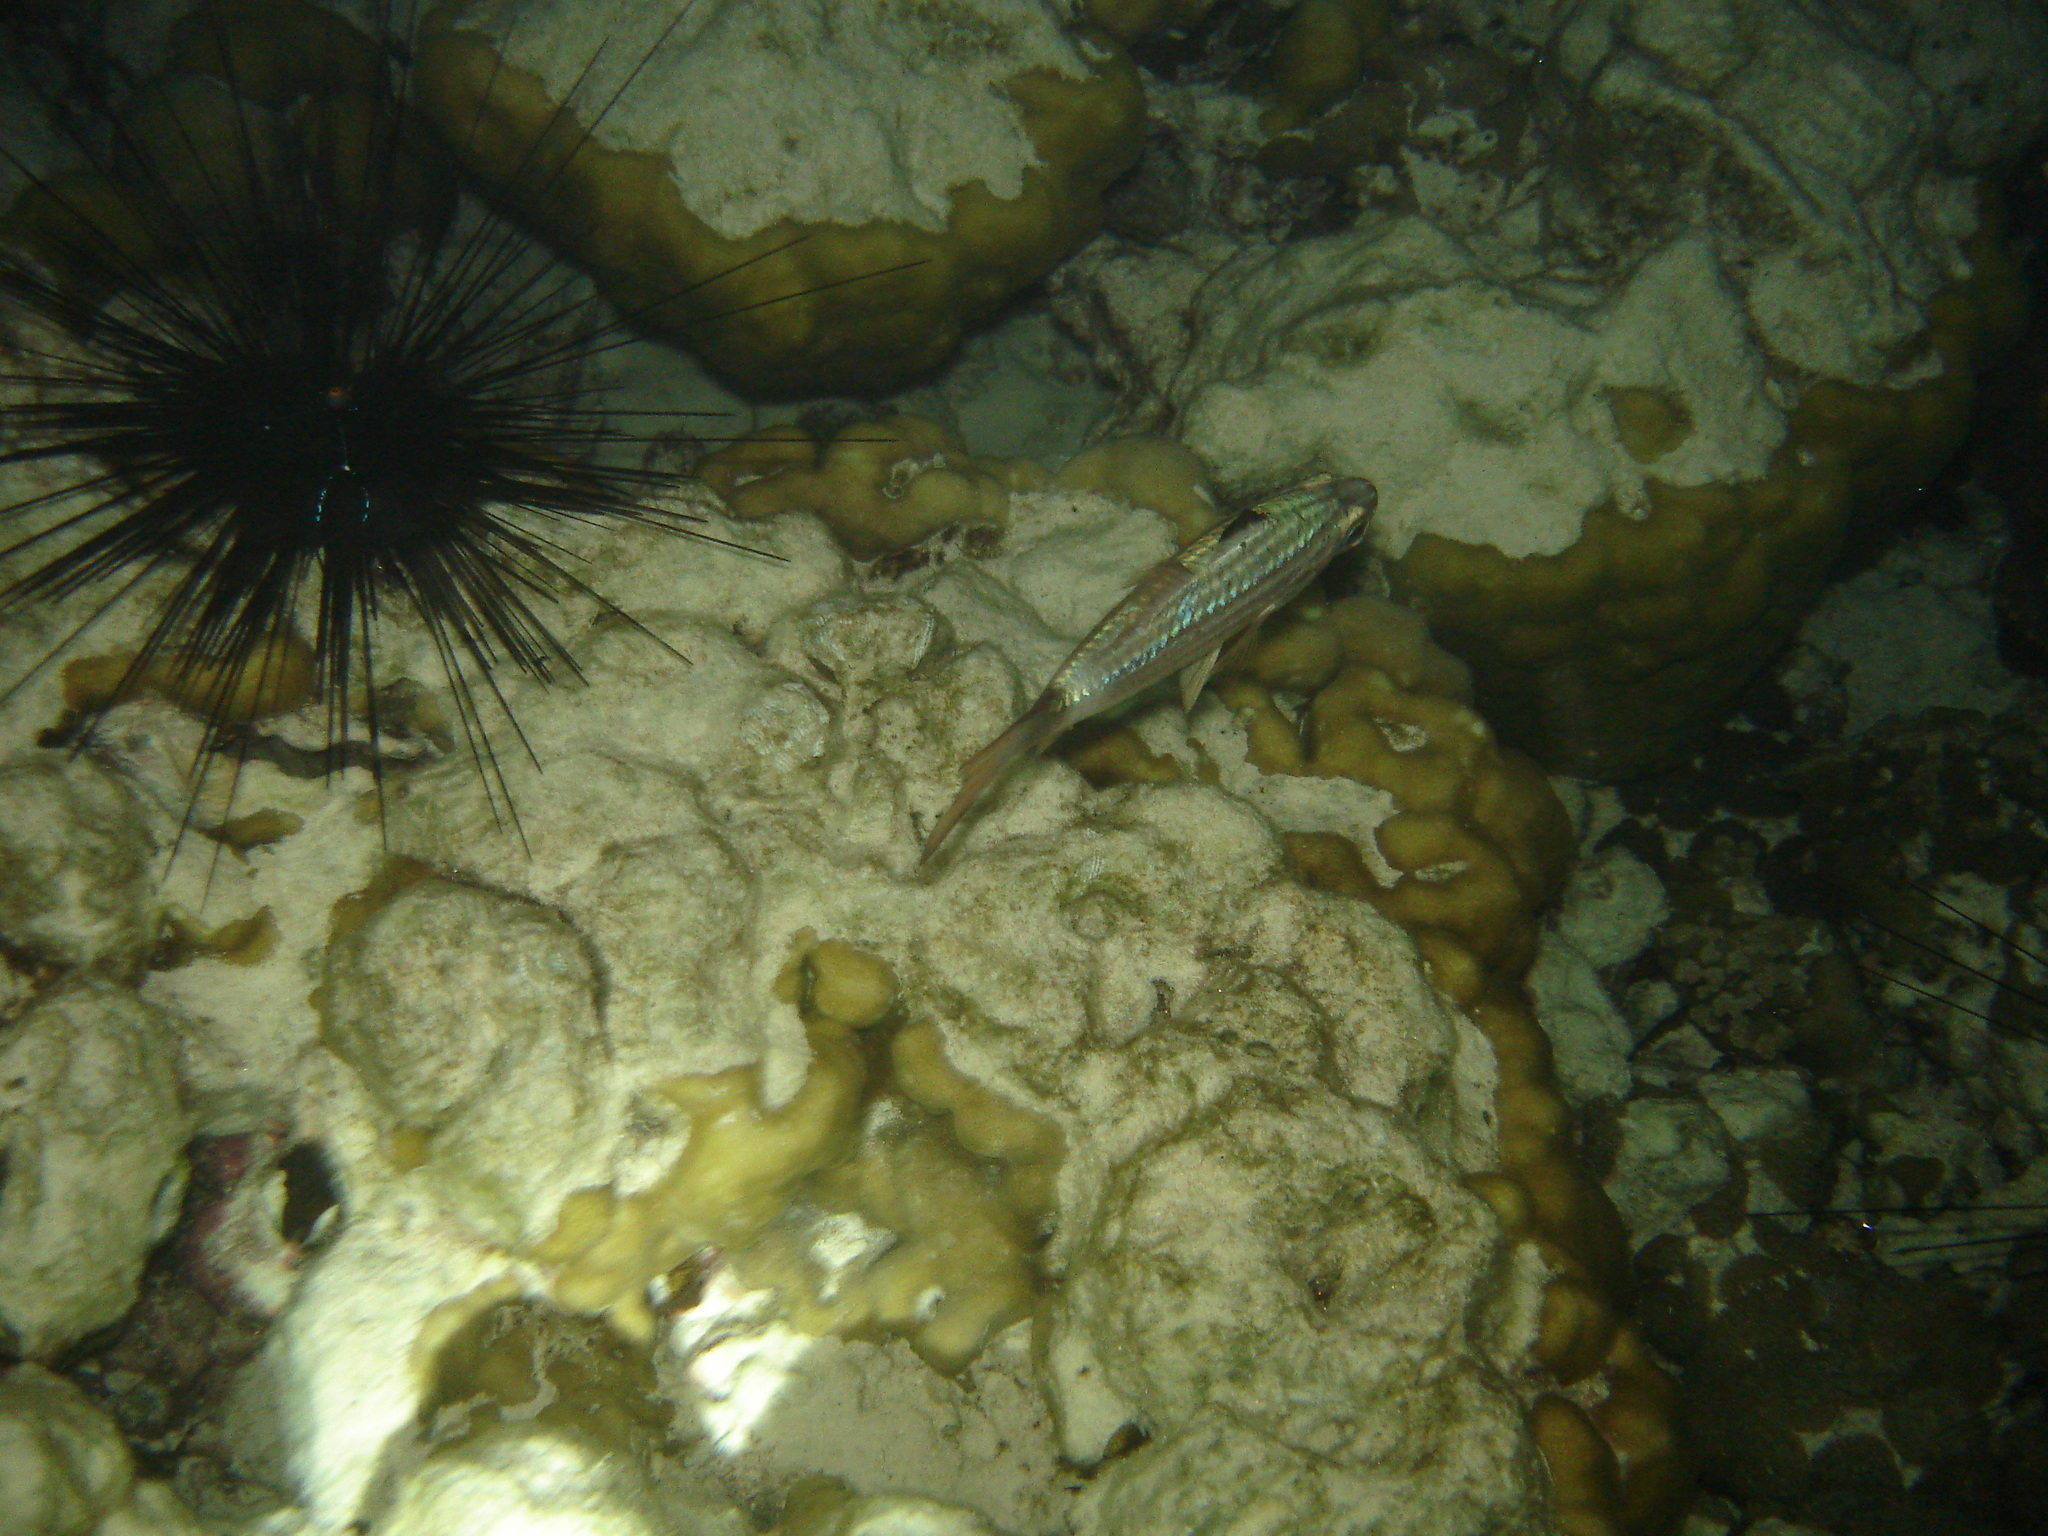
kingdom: Animalia
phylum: Chordata
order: Perciformes
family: Apogonidae
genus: Cheilodipterus
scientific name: Cheilodipterus macrodon
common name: Eight-lined cardinalfish
